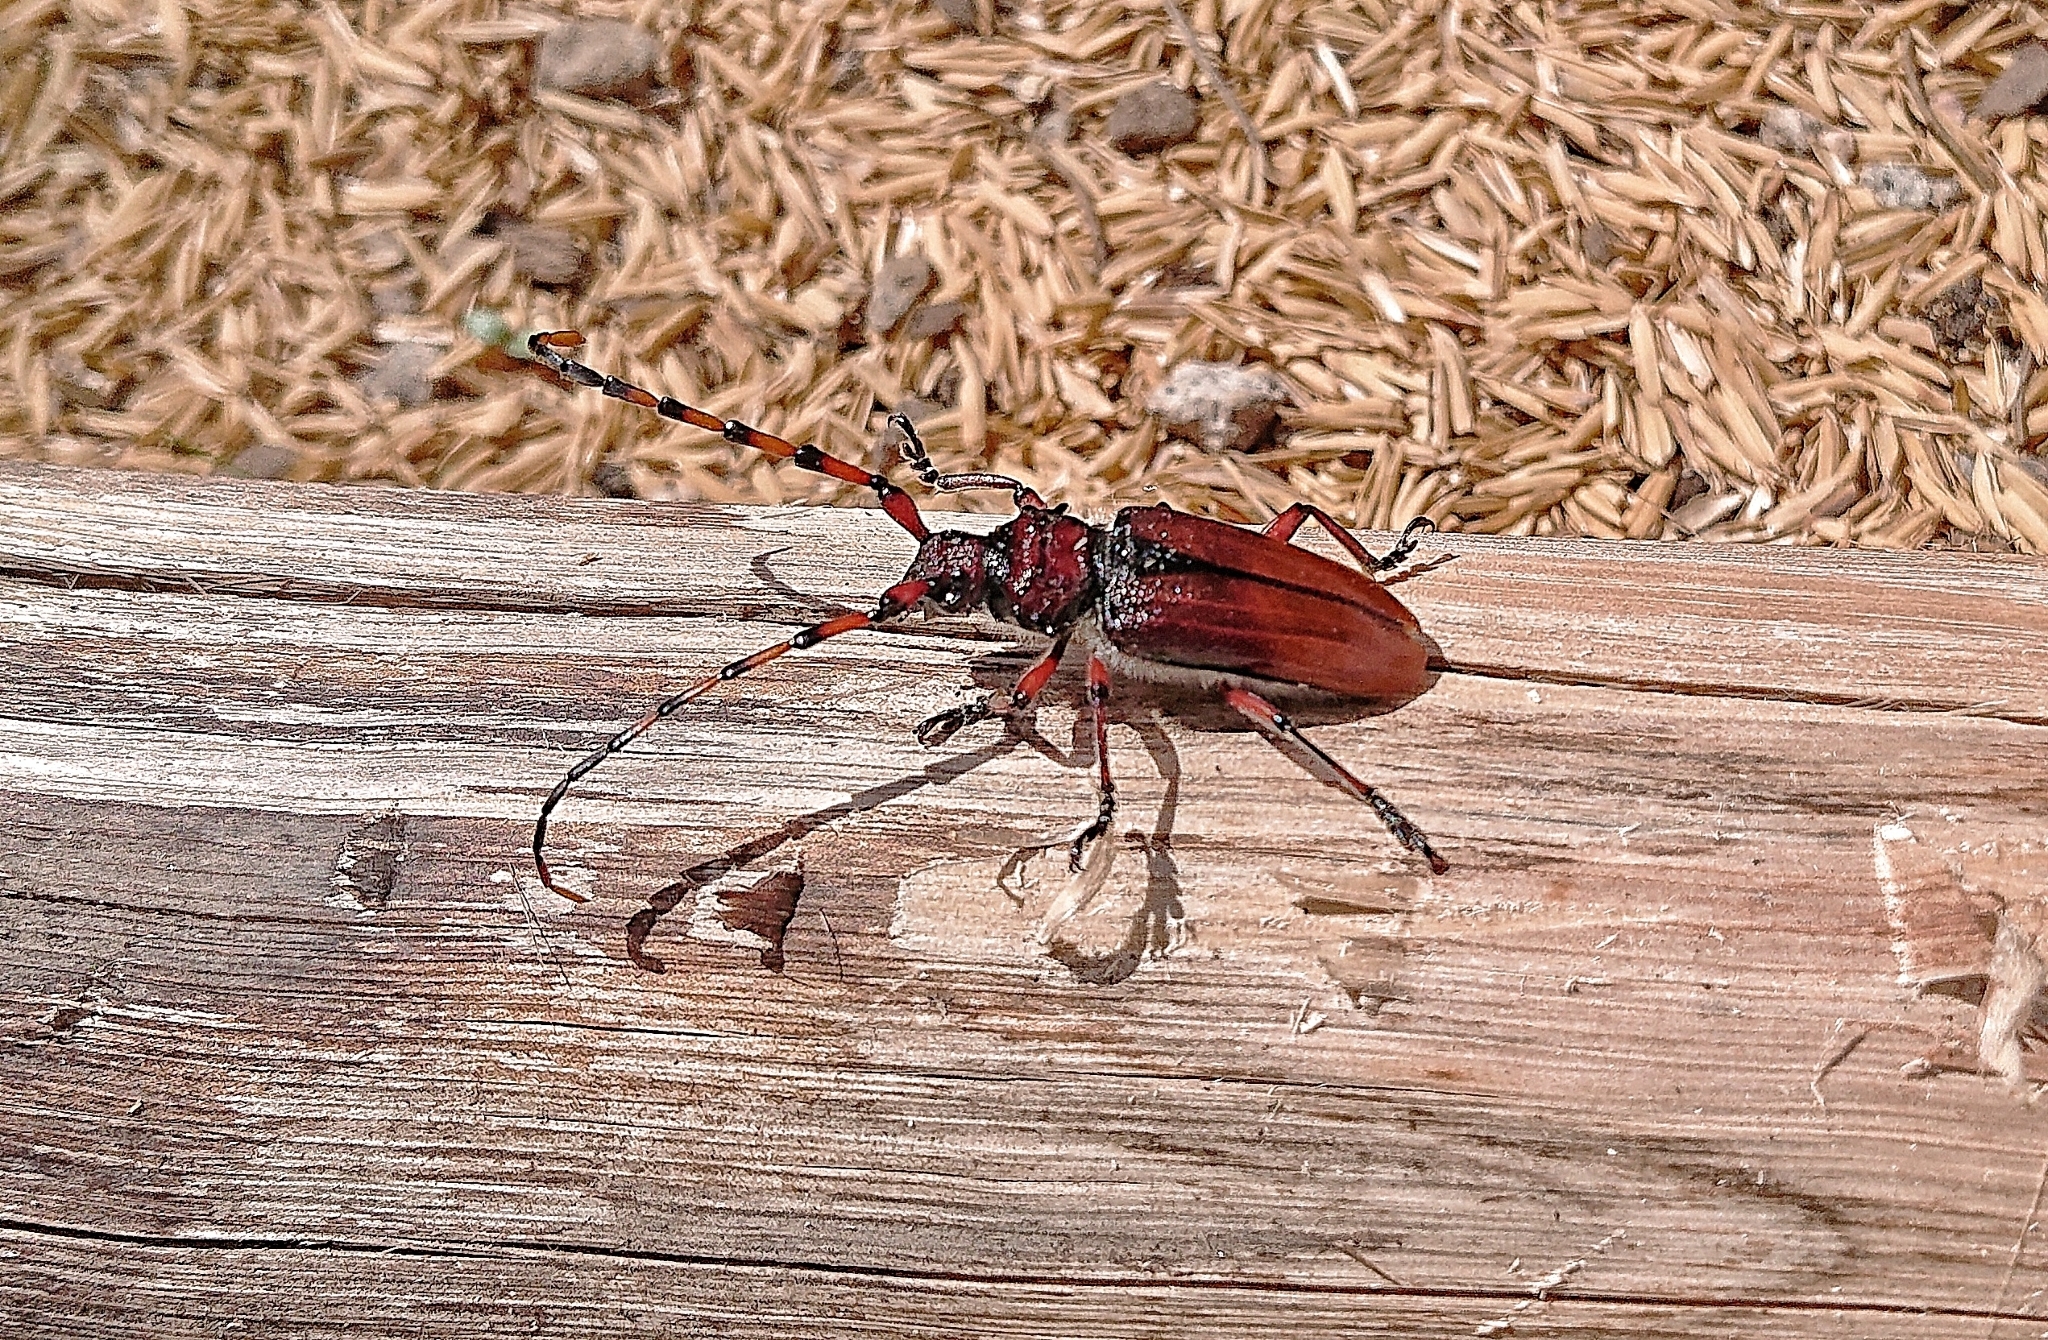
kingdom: Animalia
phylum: Arthropoda
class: Insecta
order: Coleoptera
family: Cerambycidae
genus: Deretrachys
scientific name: Deretrachys pellitus
